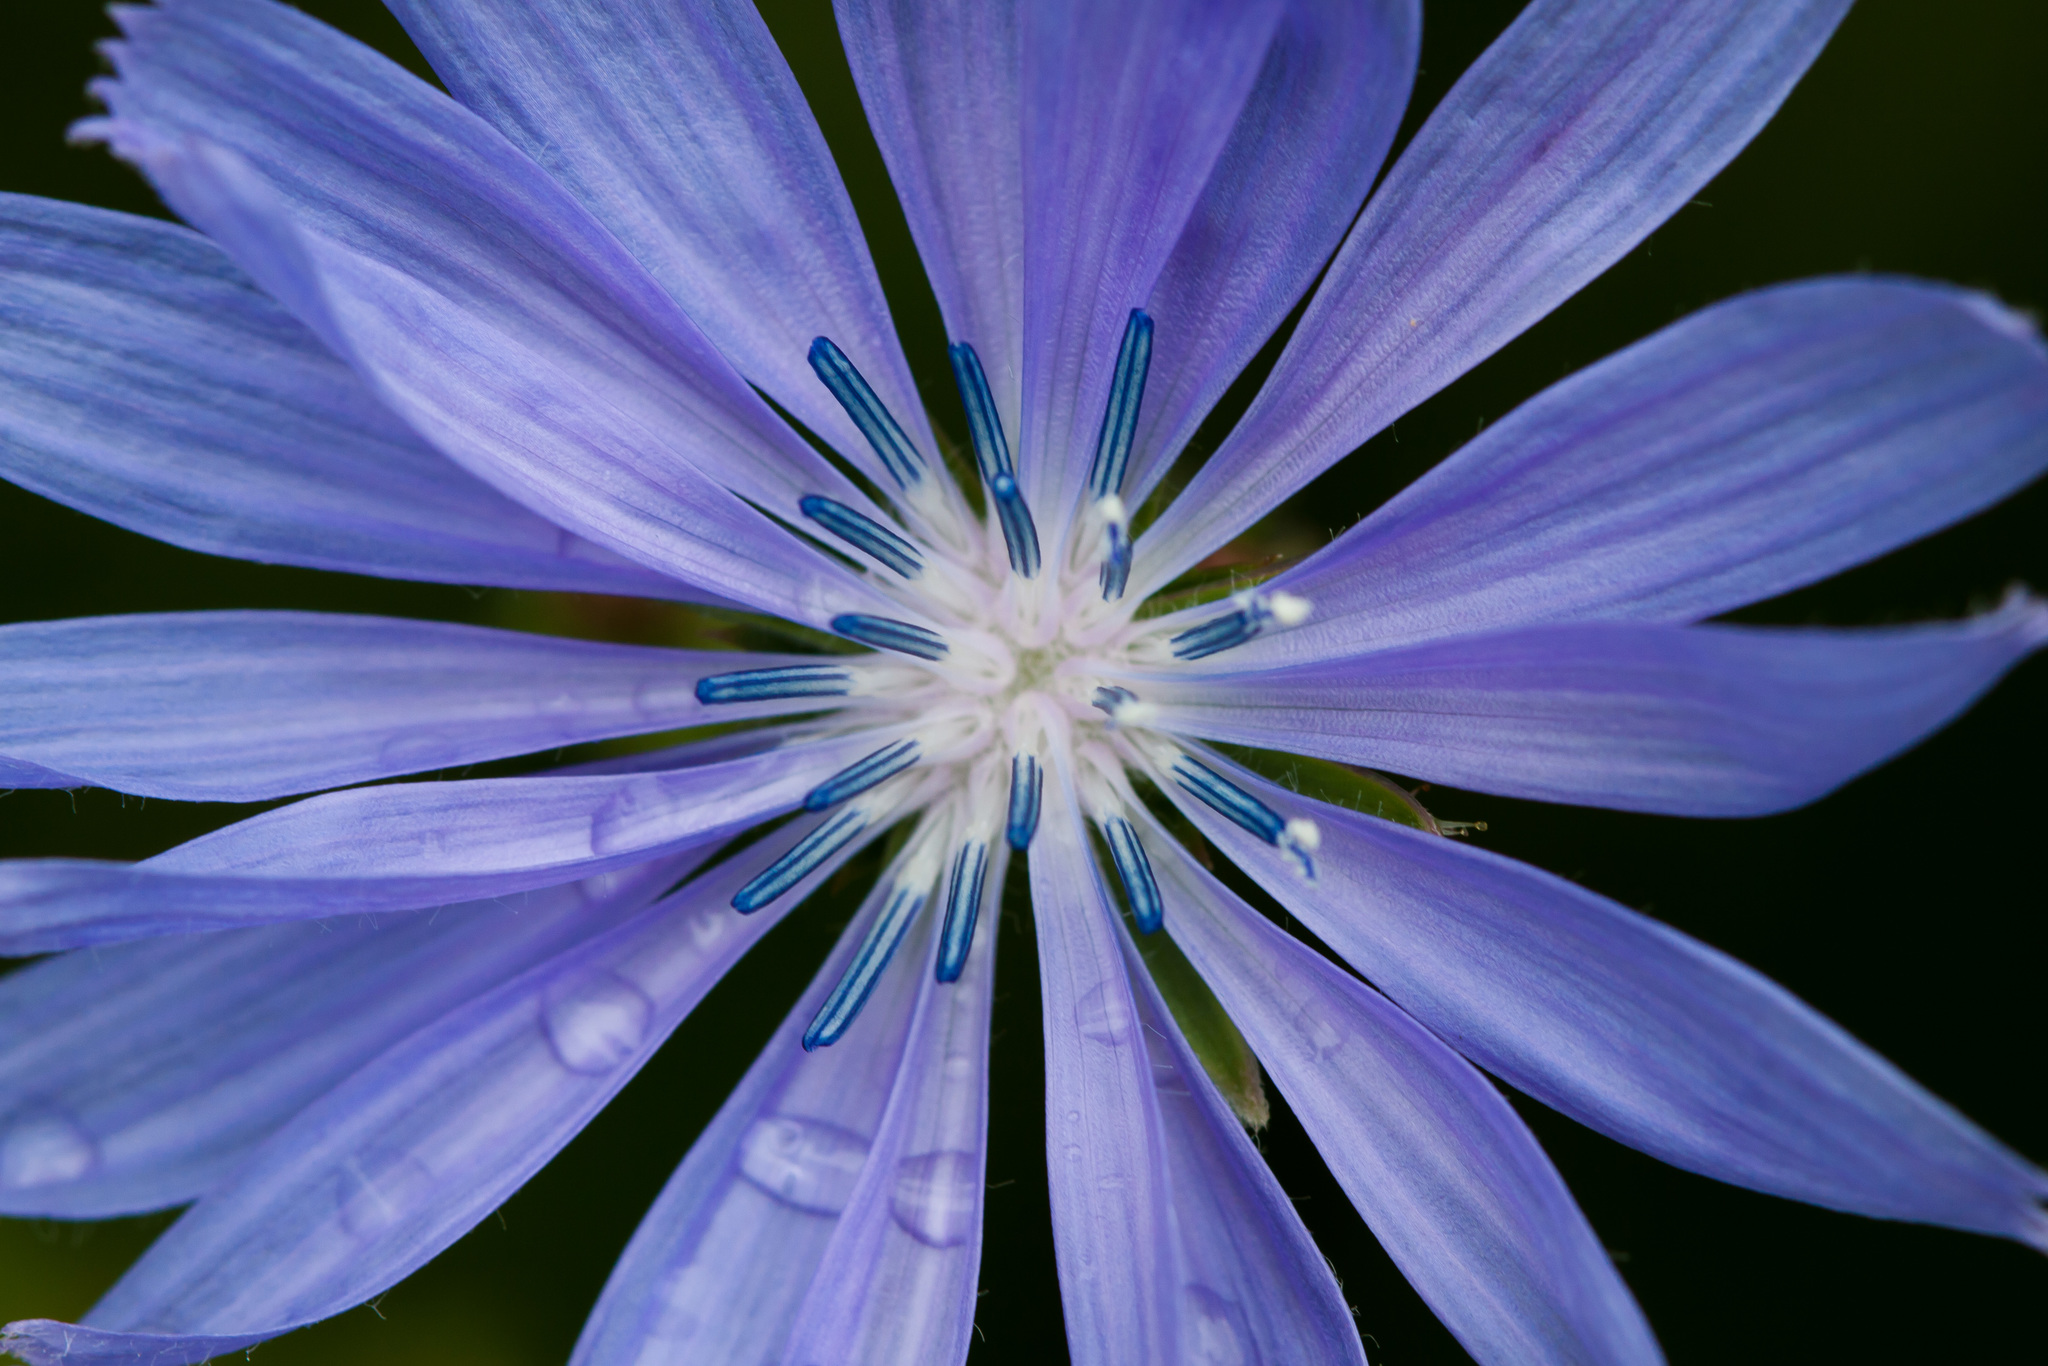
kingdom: Plantae
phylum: Tracheophyta
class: Magnoliopsida
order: Asterales
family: Asteraceae
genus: Cichorium
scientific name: Cichorium intybus
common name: Chicory
